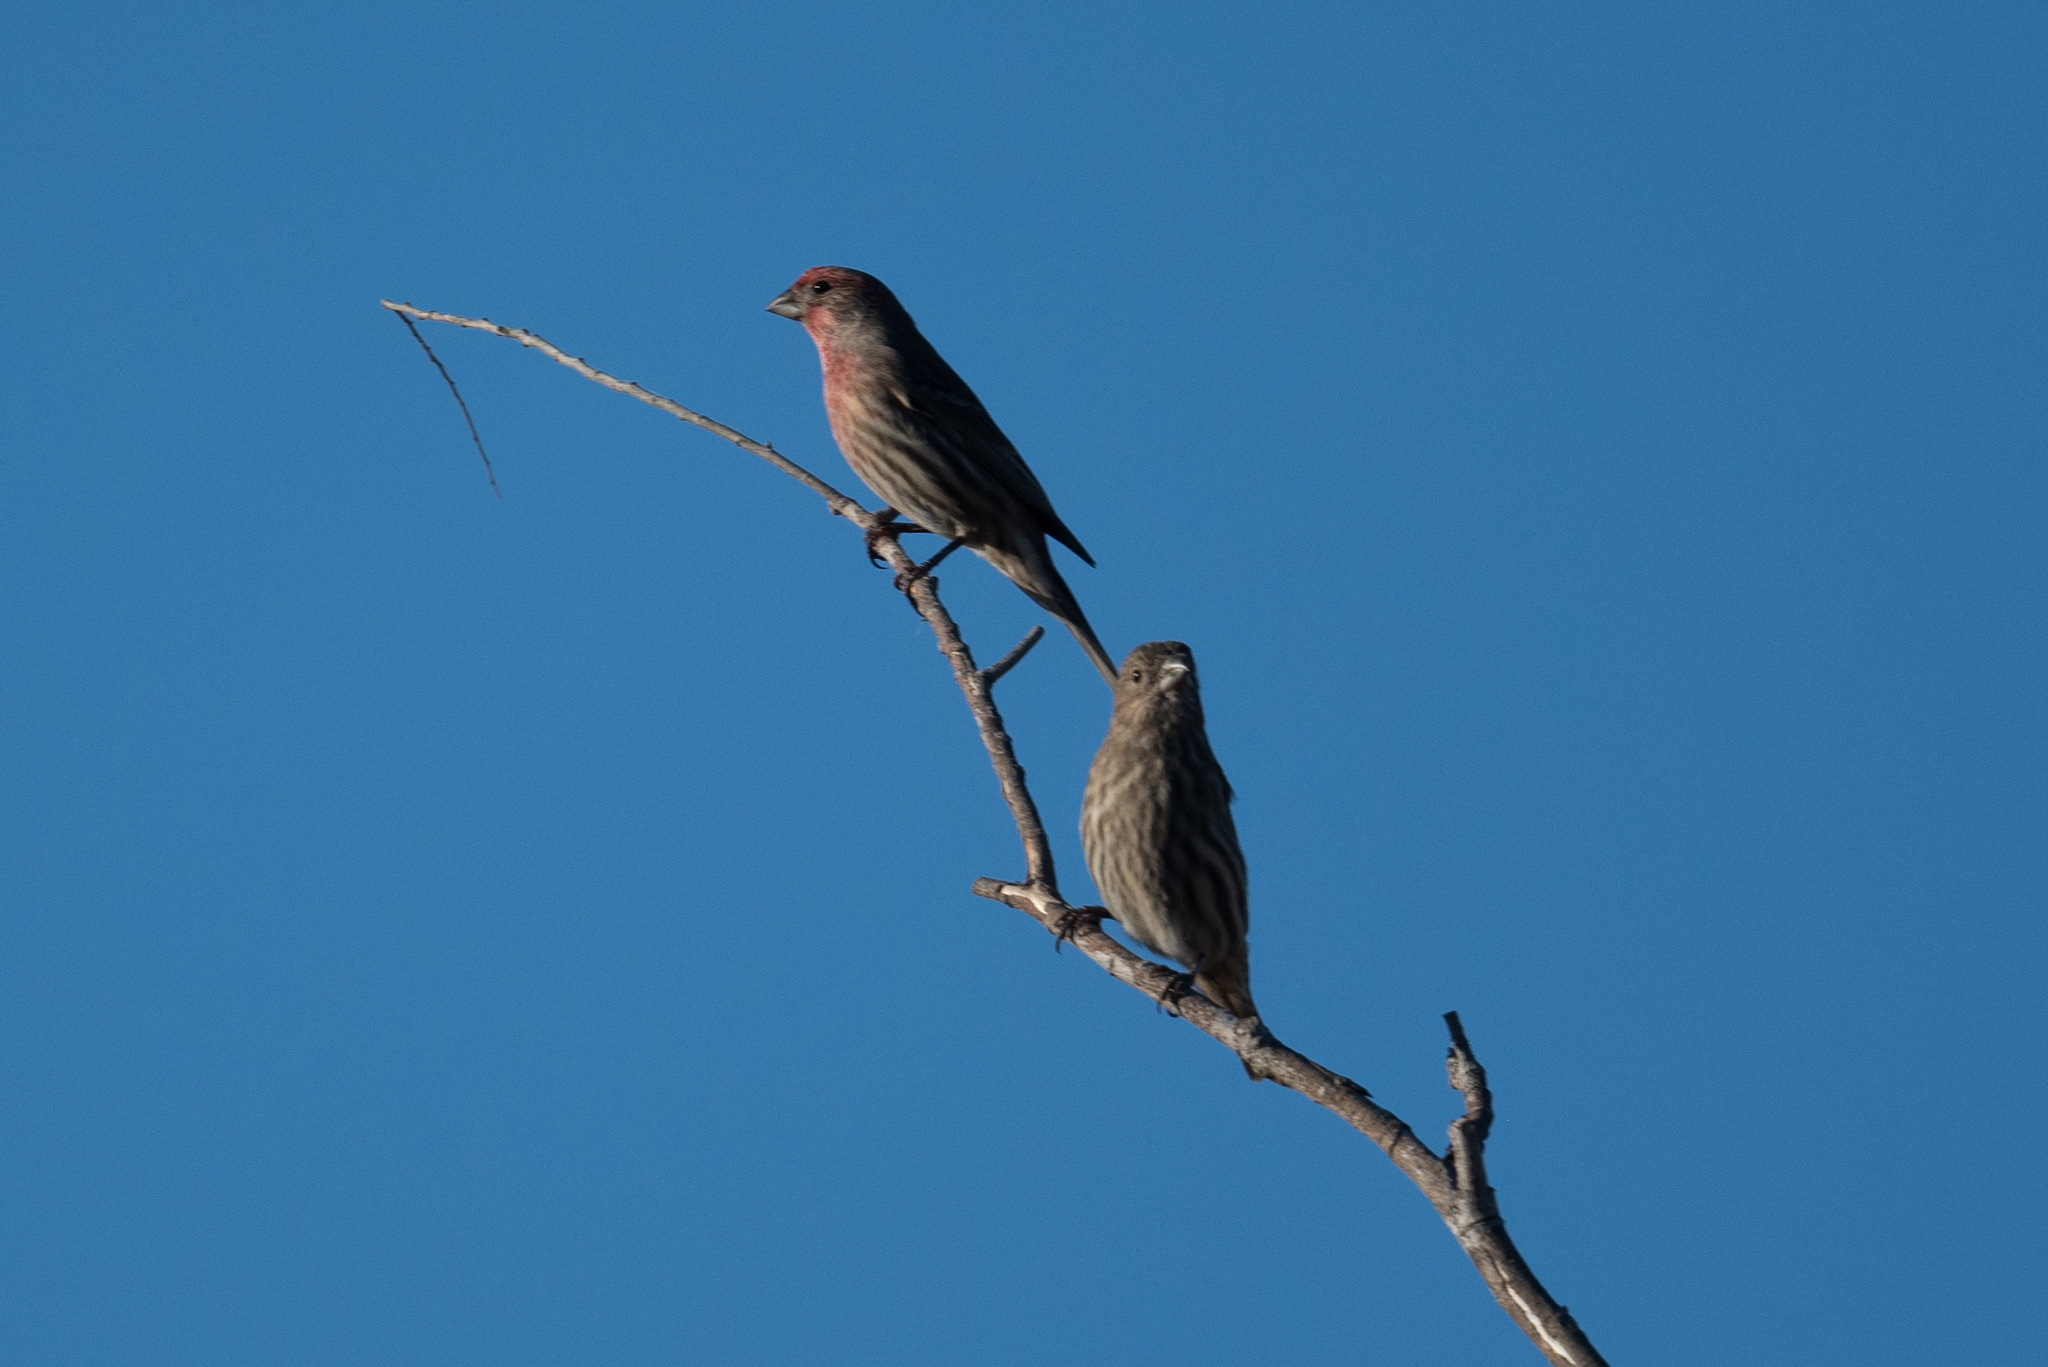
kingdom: Animalia
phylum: Chordata
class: Aves
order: Passeriformes
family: Fringillidae
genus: Haemorhous
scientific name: Haemorhous mexicanus
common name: House finch
